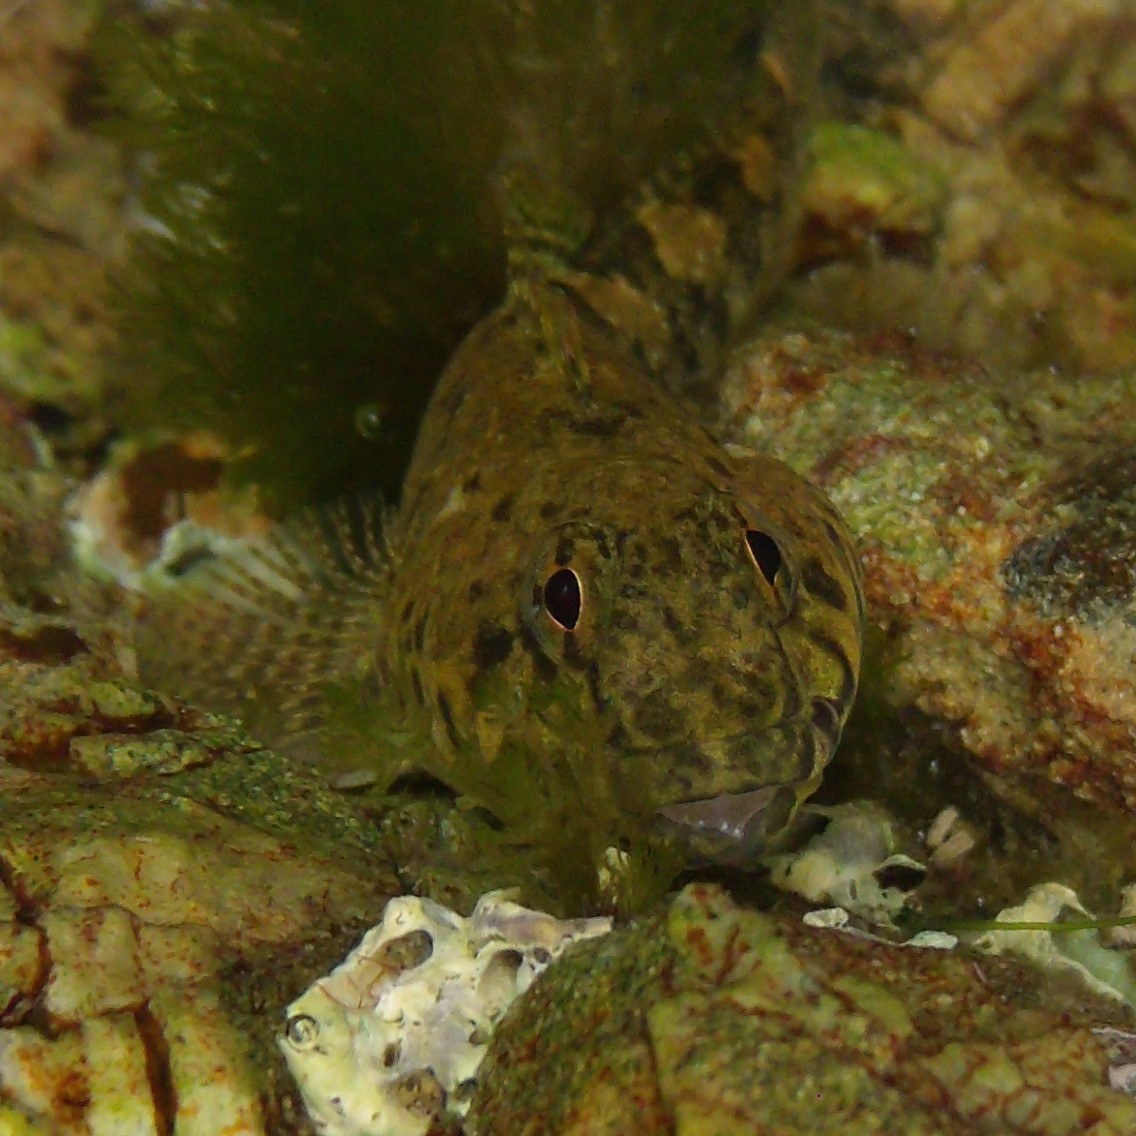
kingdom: Animalia
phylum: Chordata
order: Perciformes
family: Tripterygiidae
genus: Bellapiscis
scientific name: Bellapiscis medius
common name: Twister
